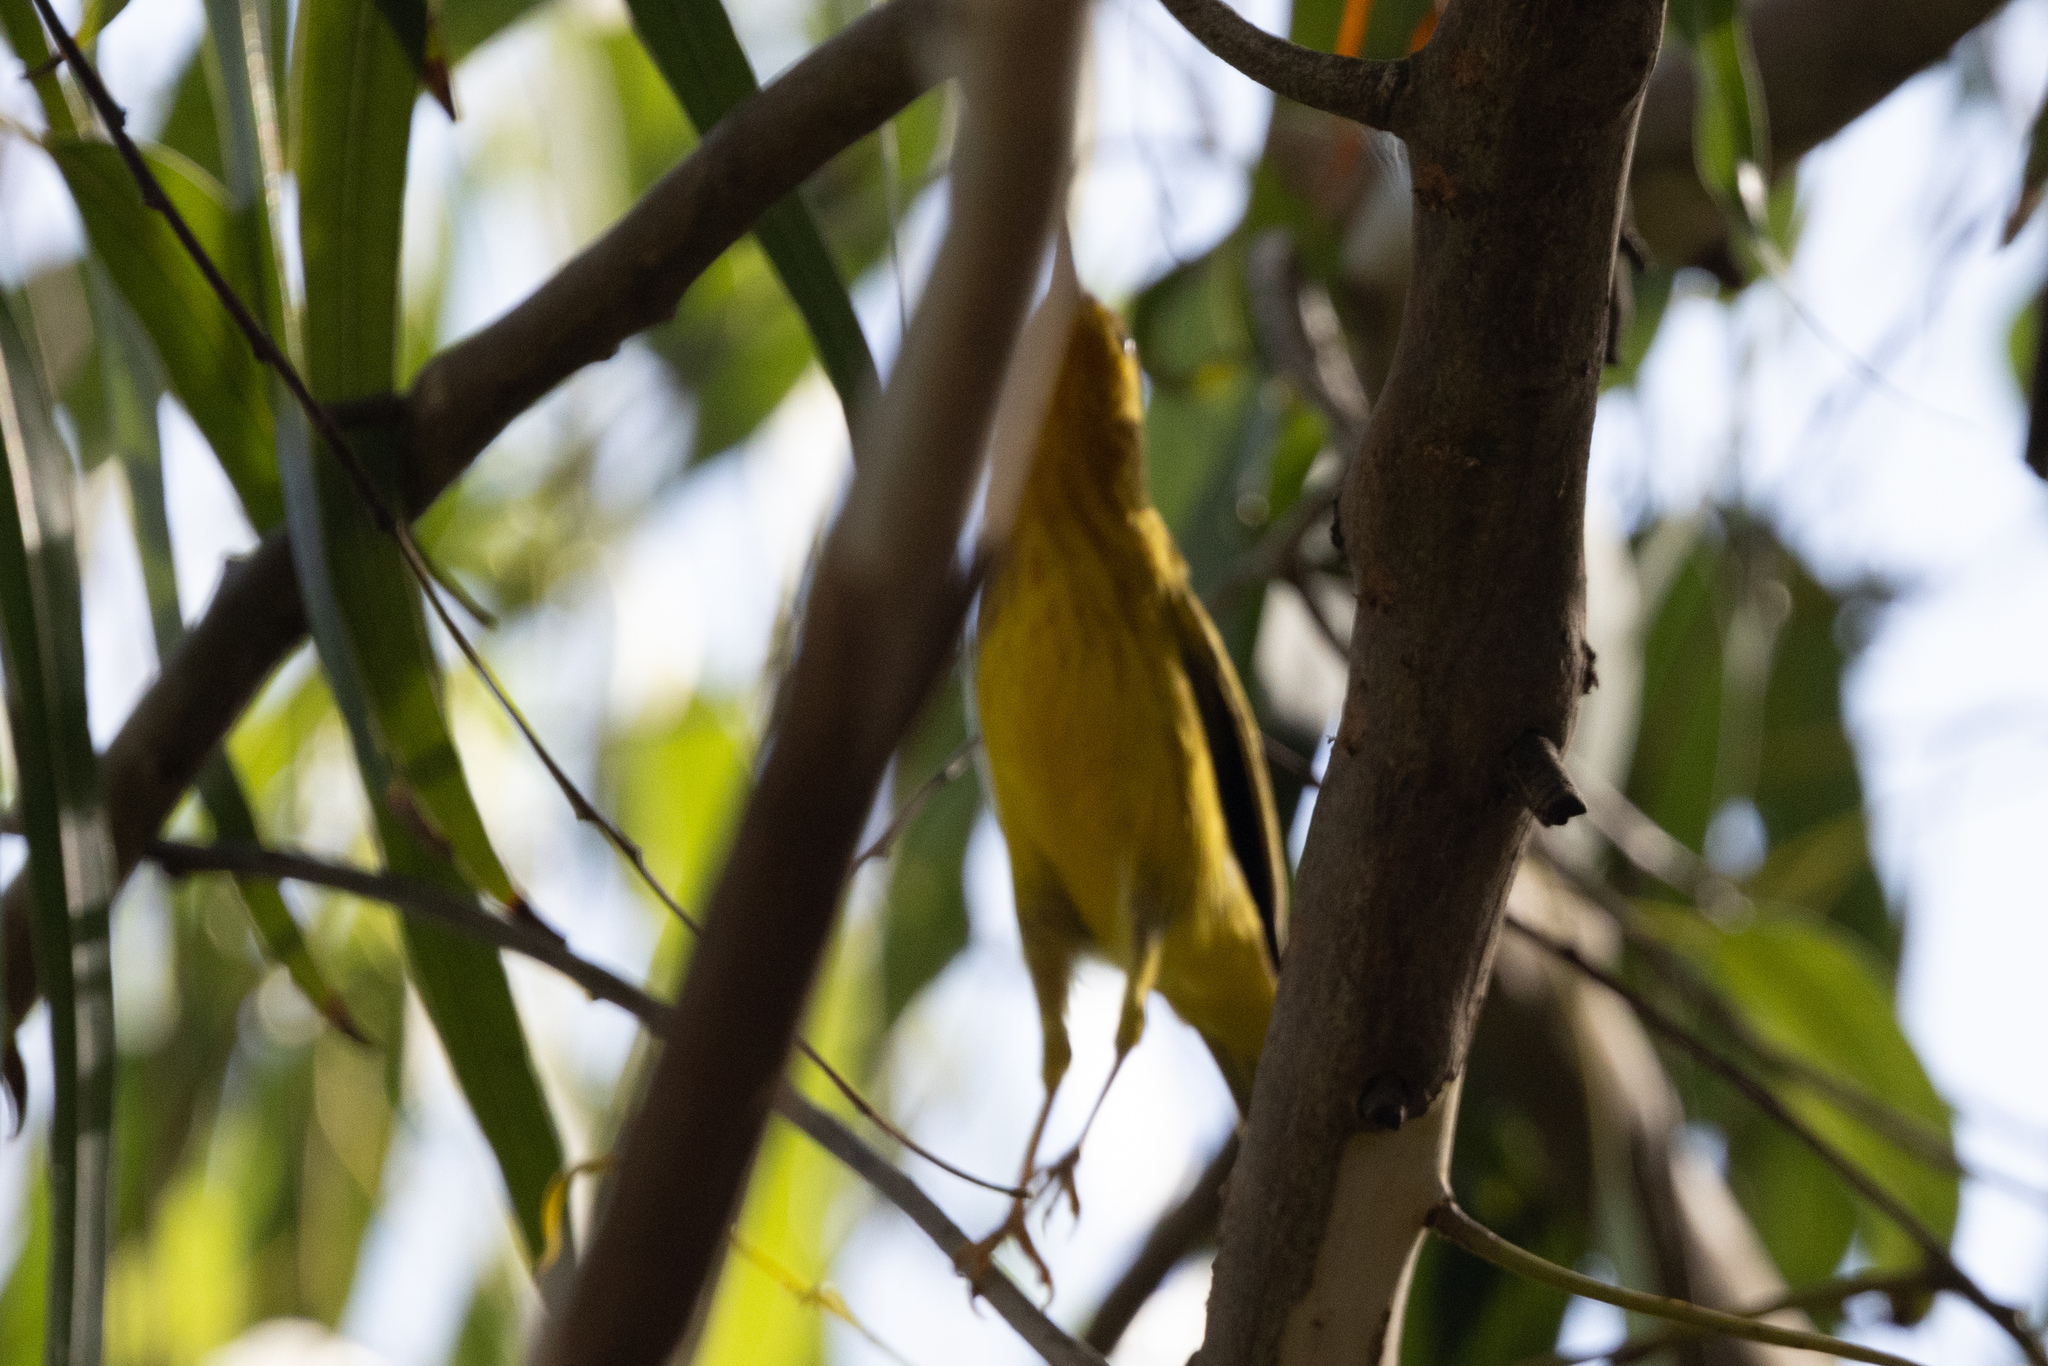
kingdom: Animalia
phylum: Chordata
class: Aves
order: Passeriformes
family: Parulidae
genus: Setophaga
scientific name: Setophaga petechia
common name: Yellow warbler
